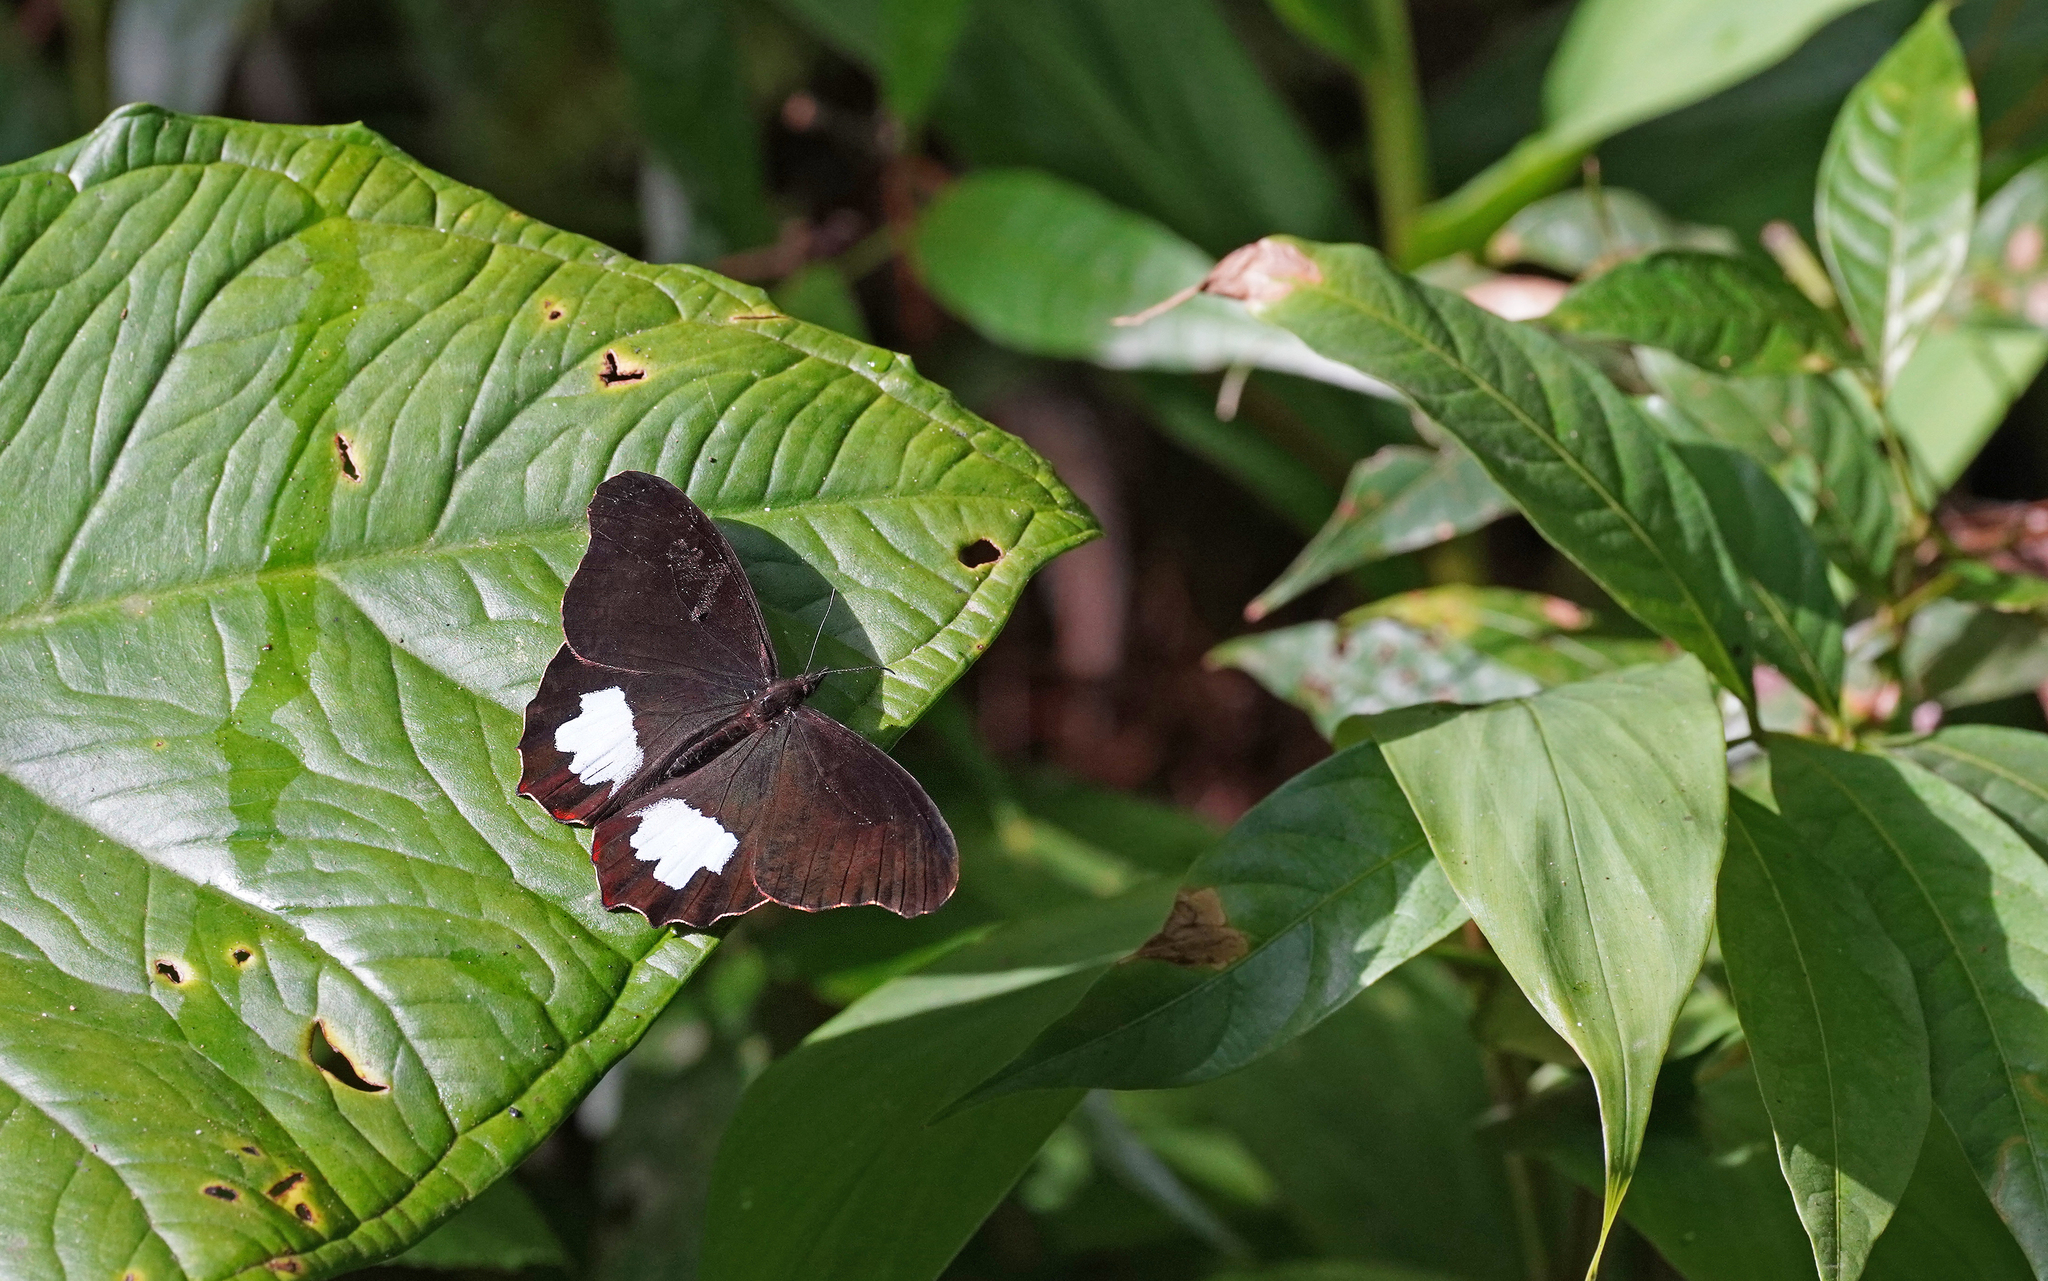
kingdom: Animalia
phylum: Arthropoda
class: Insecta
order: Lepidoptera
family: Nymphalidae
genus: Mygona
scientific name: Mygona irmina
